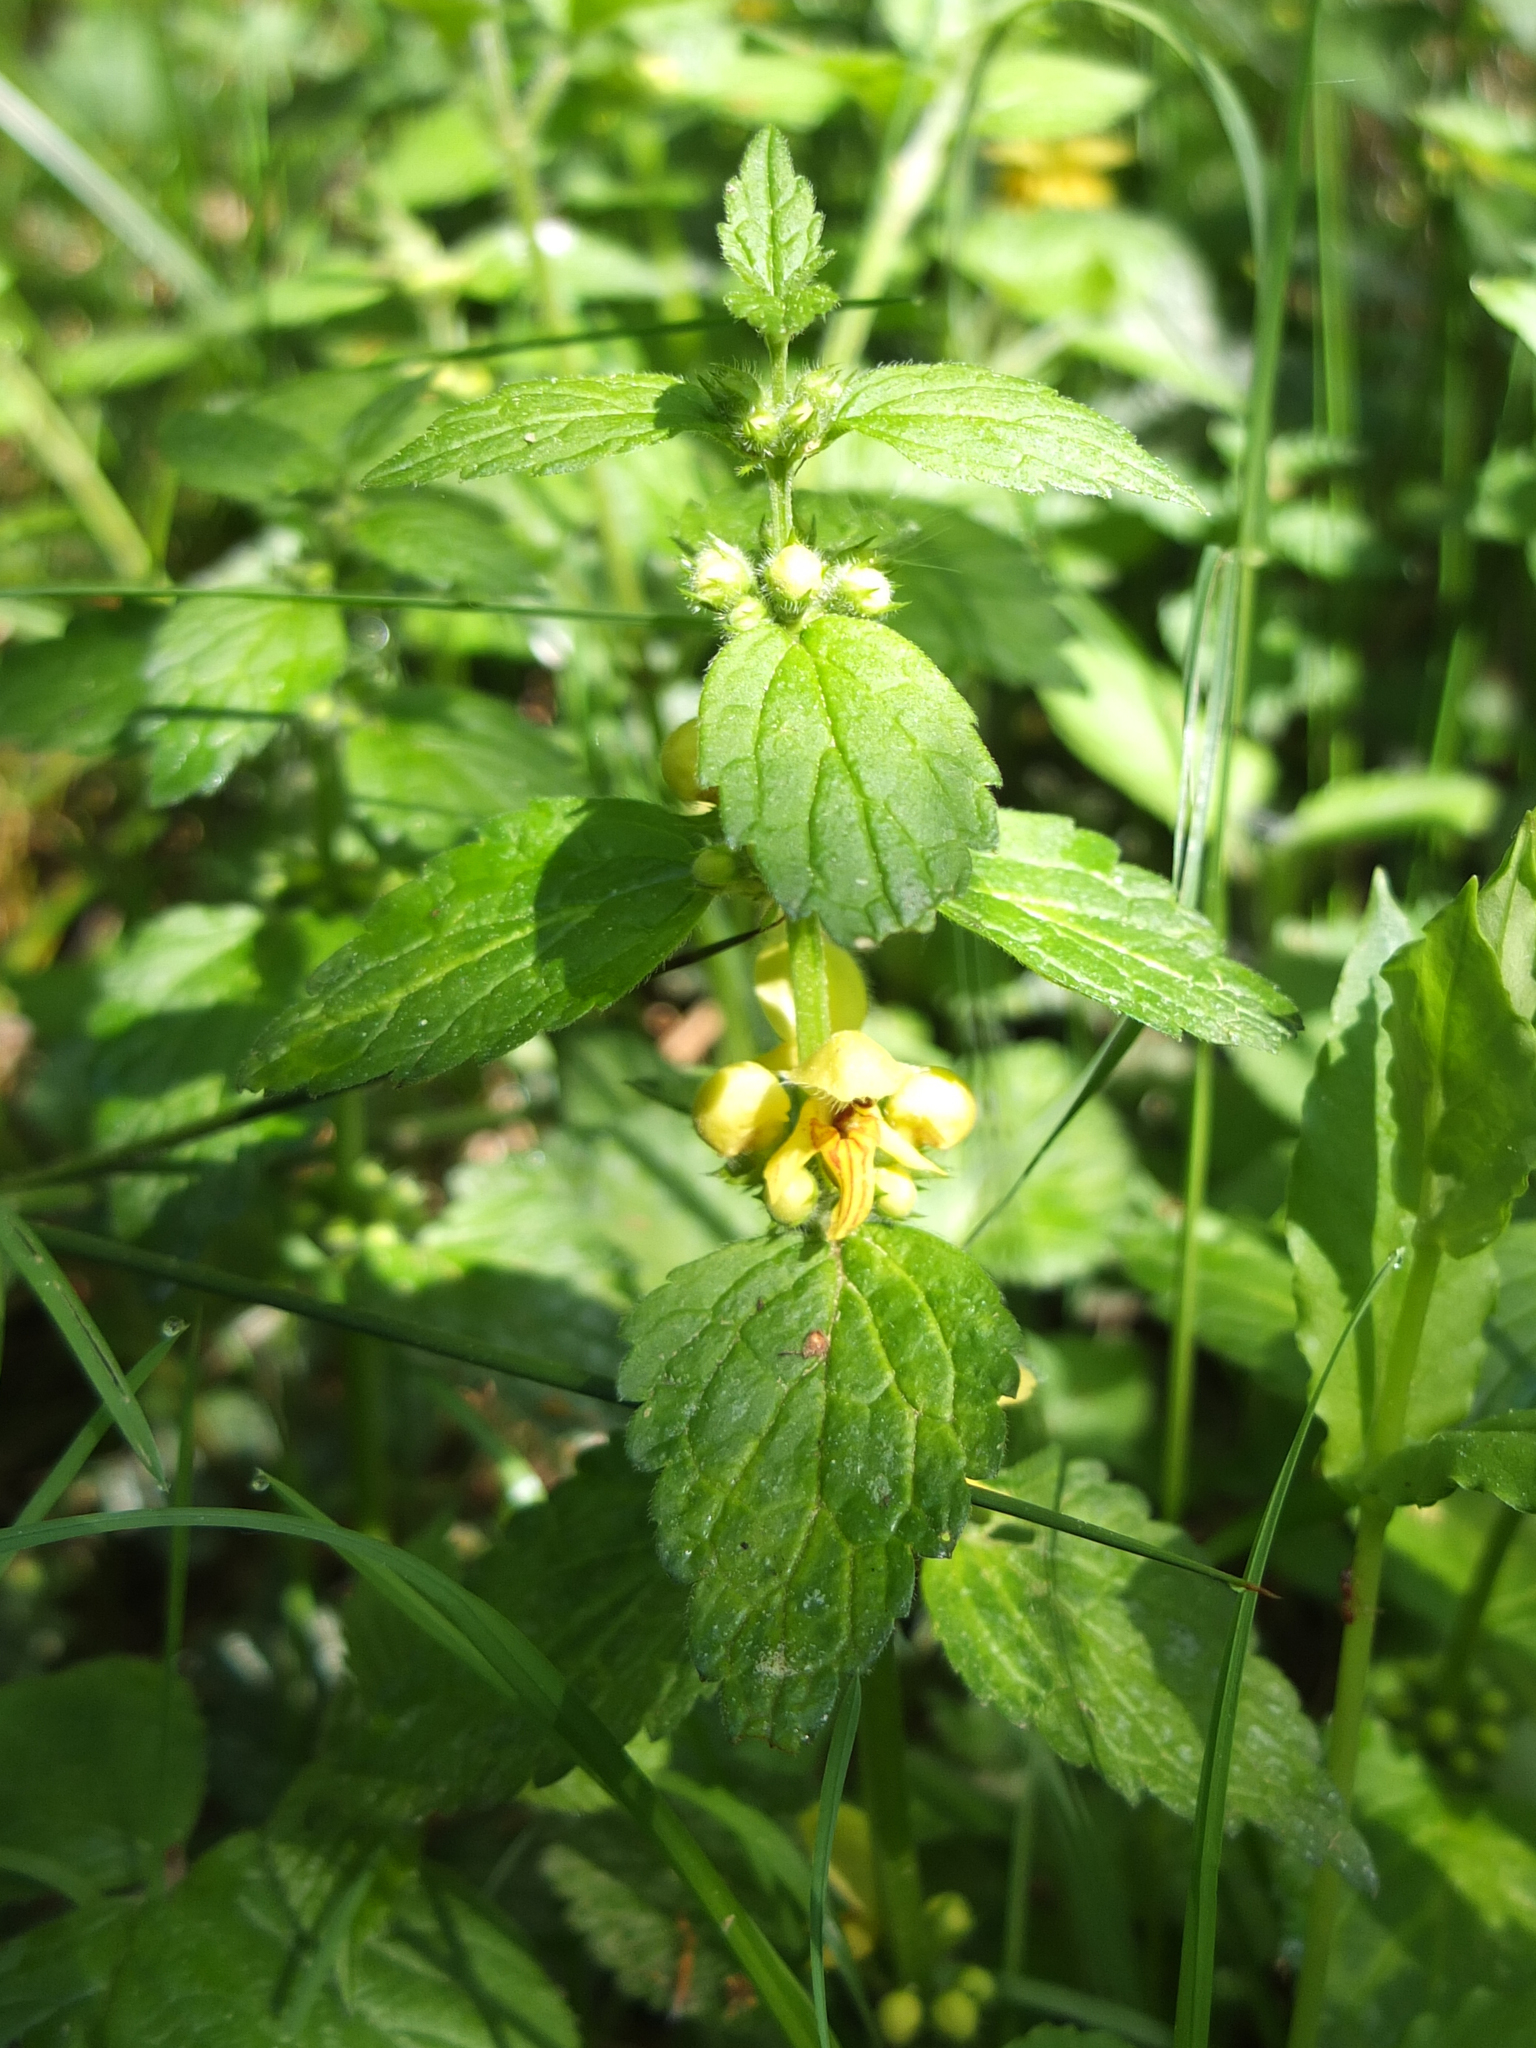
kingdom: Plantae
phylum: Tracheophyta
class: Magnoliopsida
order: Lamiales
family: Lamiaceae
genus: Lamium
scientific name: Lamium galeobdolon
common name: Yellow archangel
